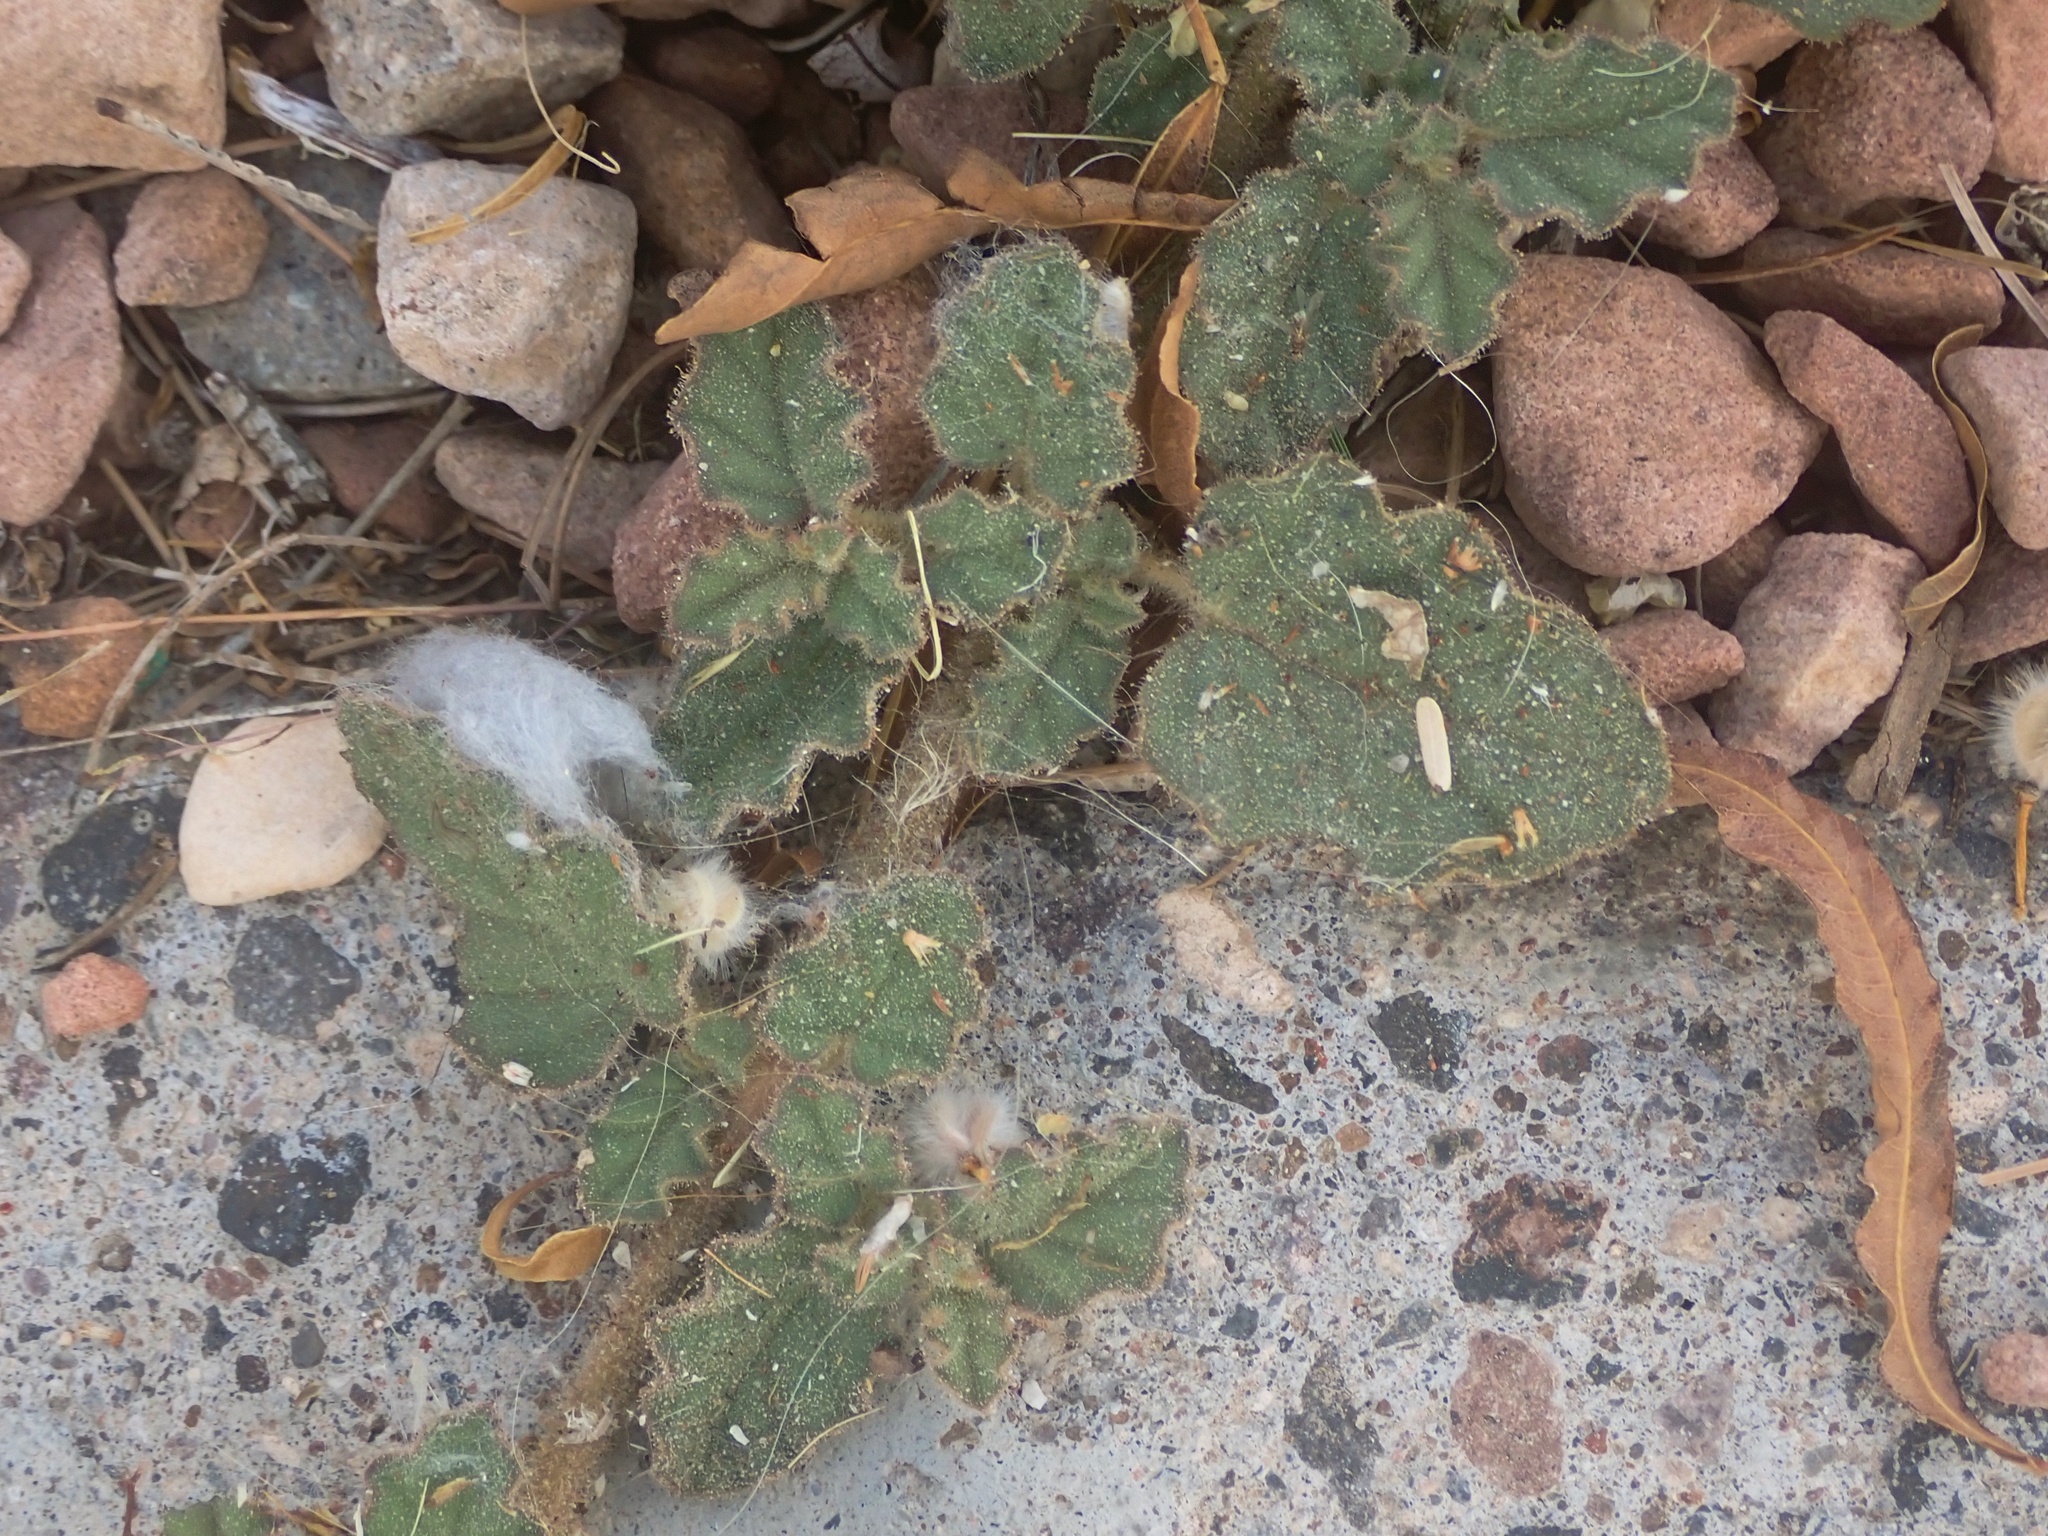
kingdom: Plantae
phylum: Tracheophyta
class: Magnoliopsida
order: Caryophyllales
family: Nyctaginaceae
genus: Allionia
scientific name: Allionia incarnata
